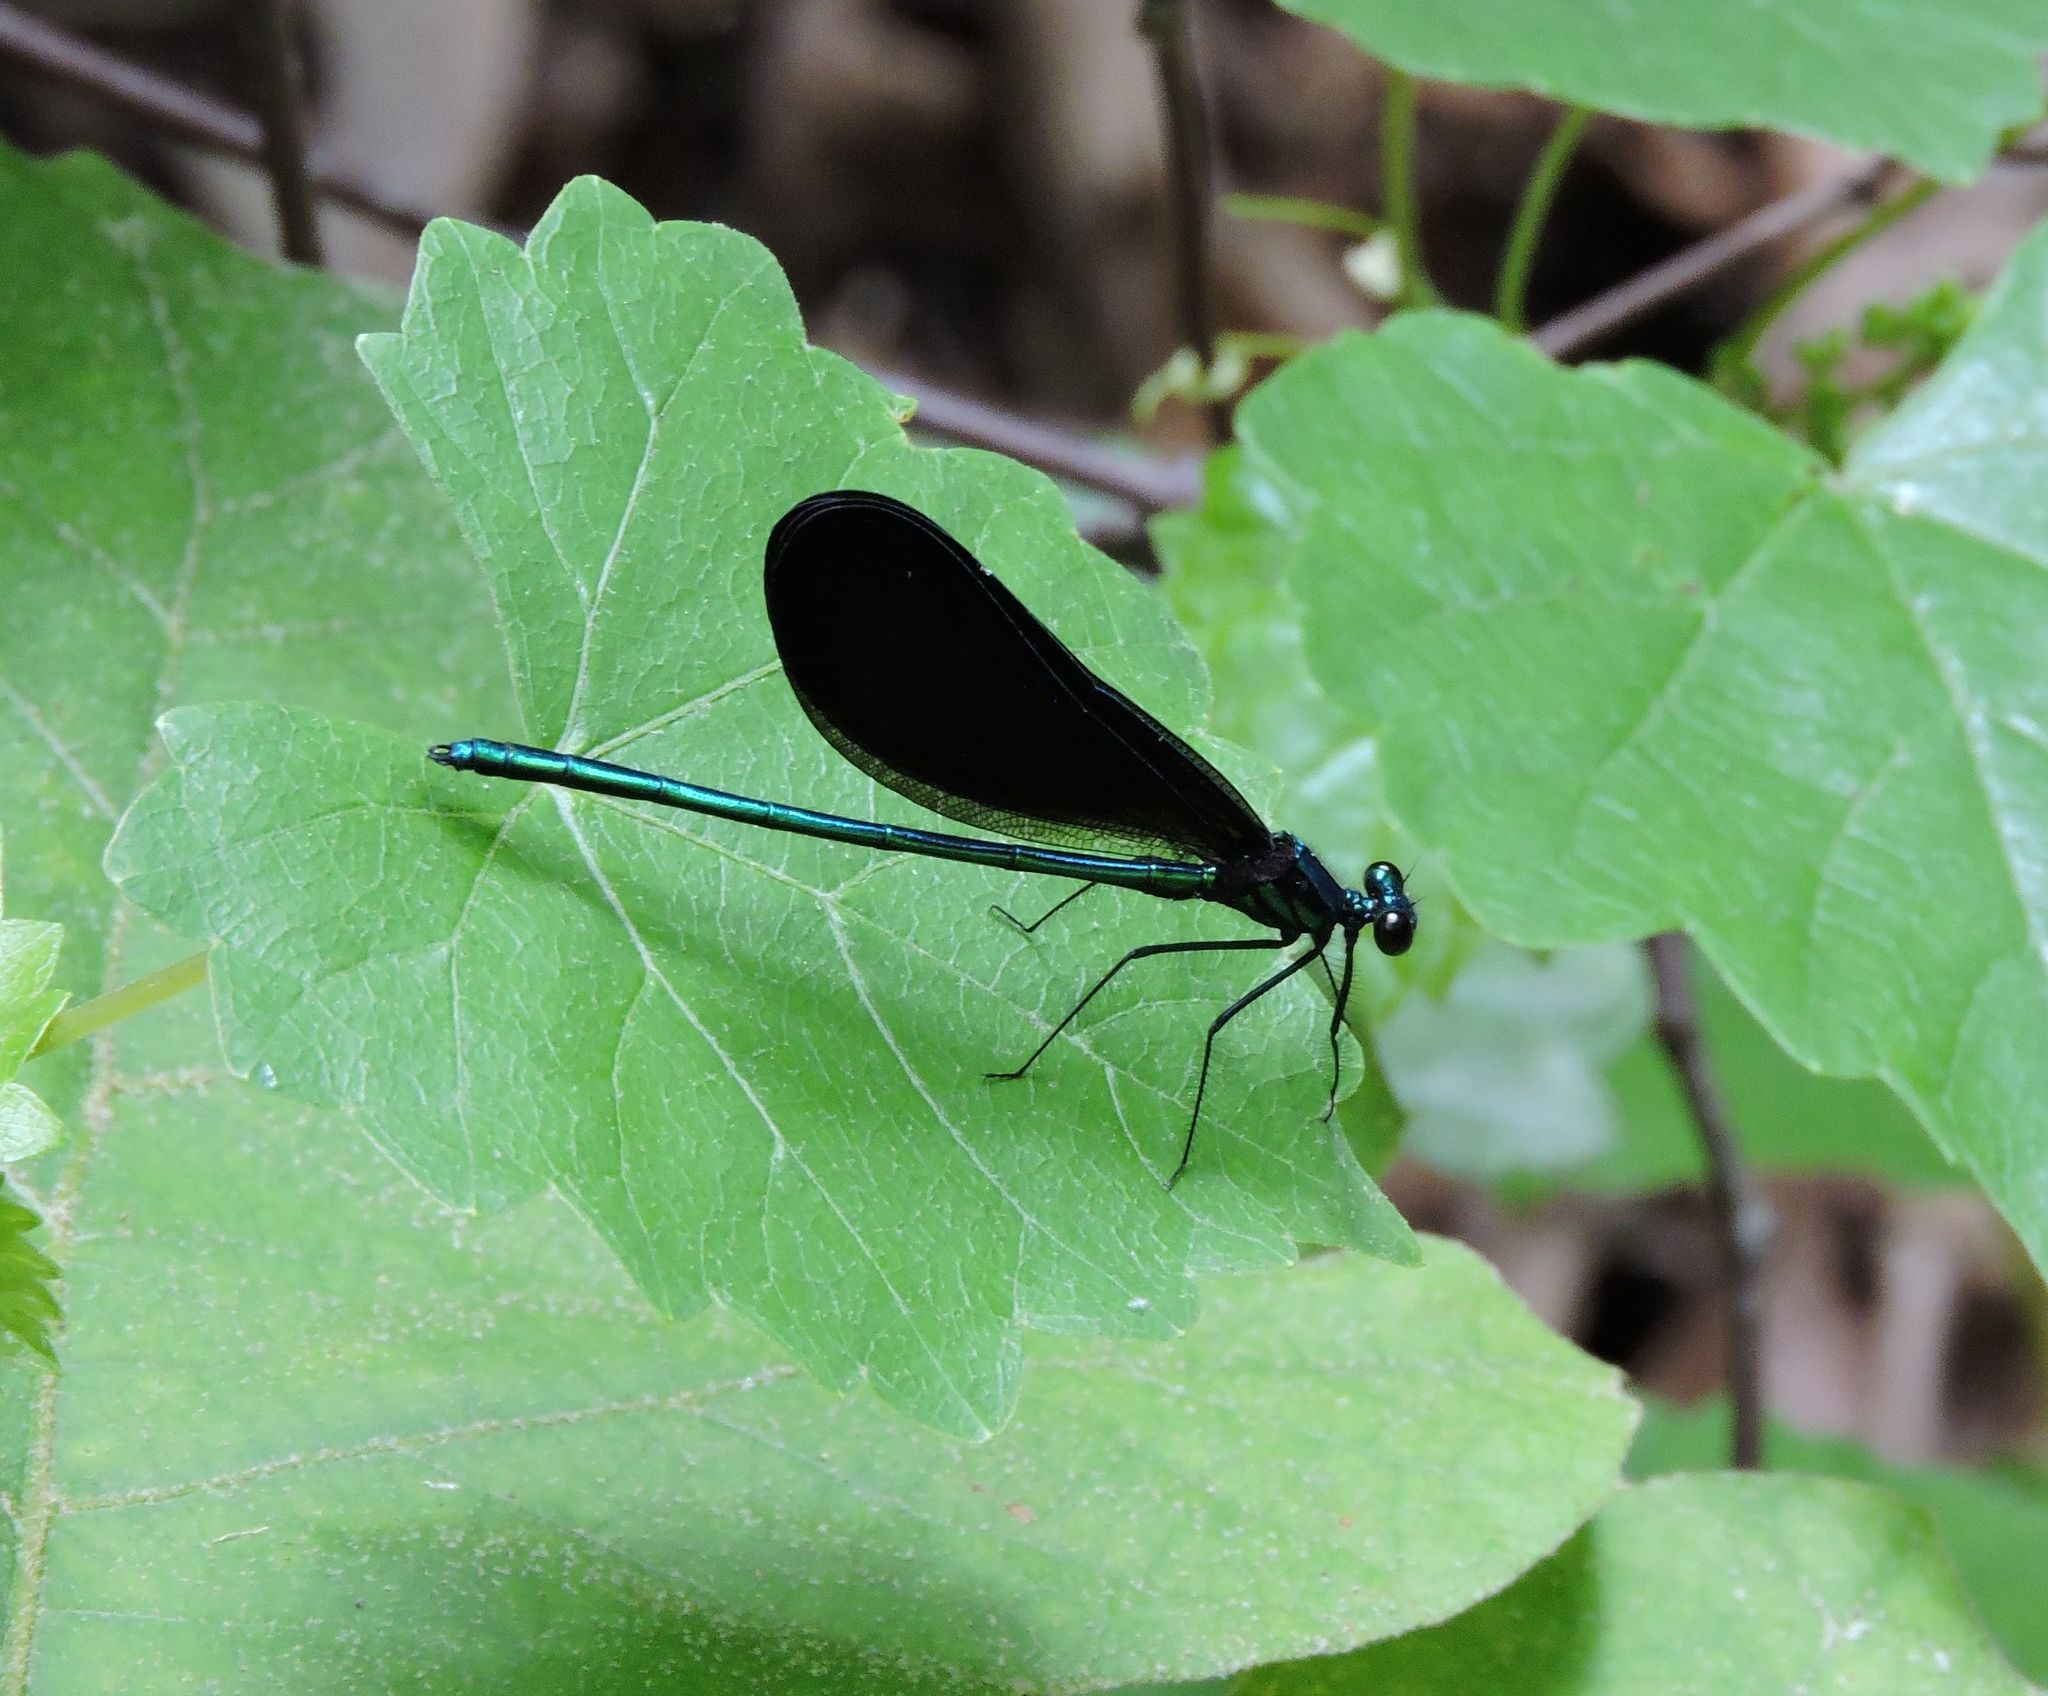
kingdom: Animalia
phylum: Arthropoda
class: Insecta
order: Odonata
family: Calopterygidae
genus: Calopteryx
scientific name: Calopteryx maculata
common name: Ebony jewelwing
